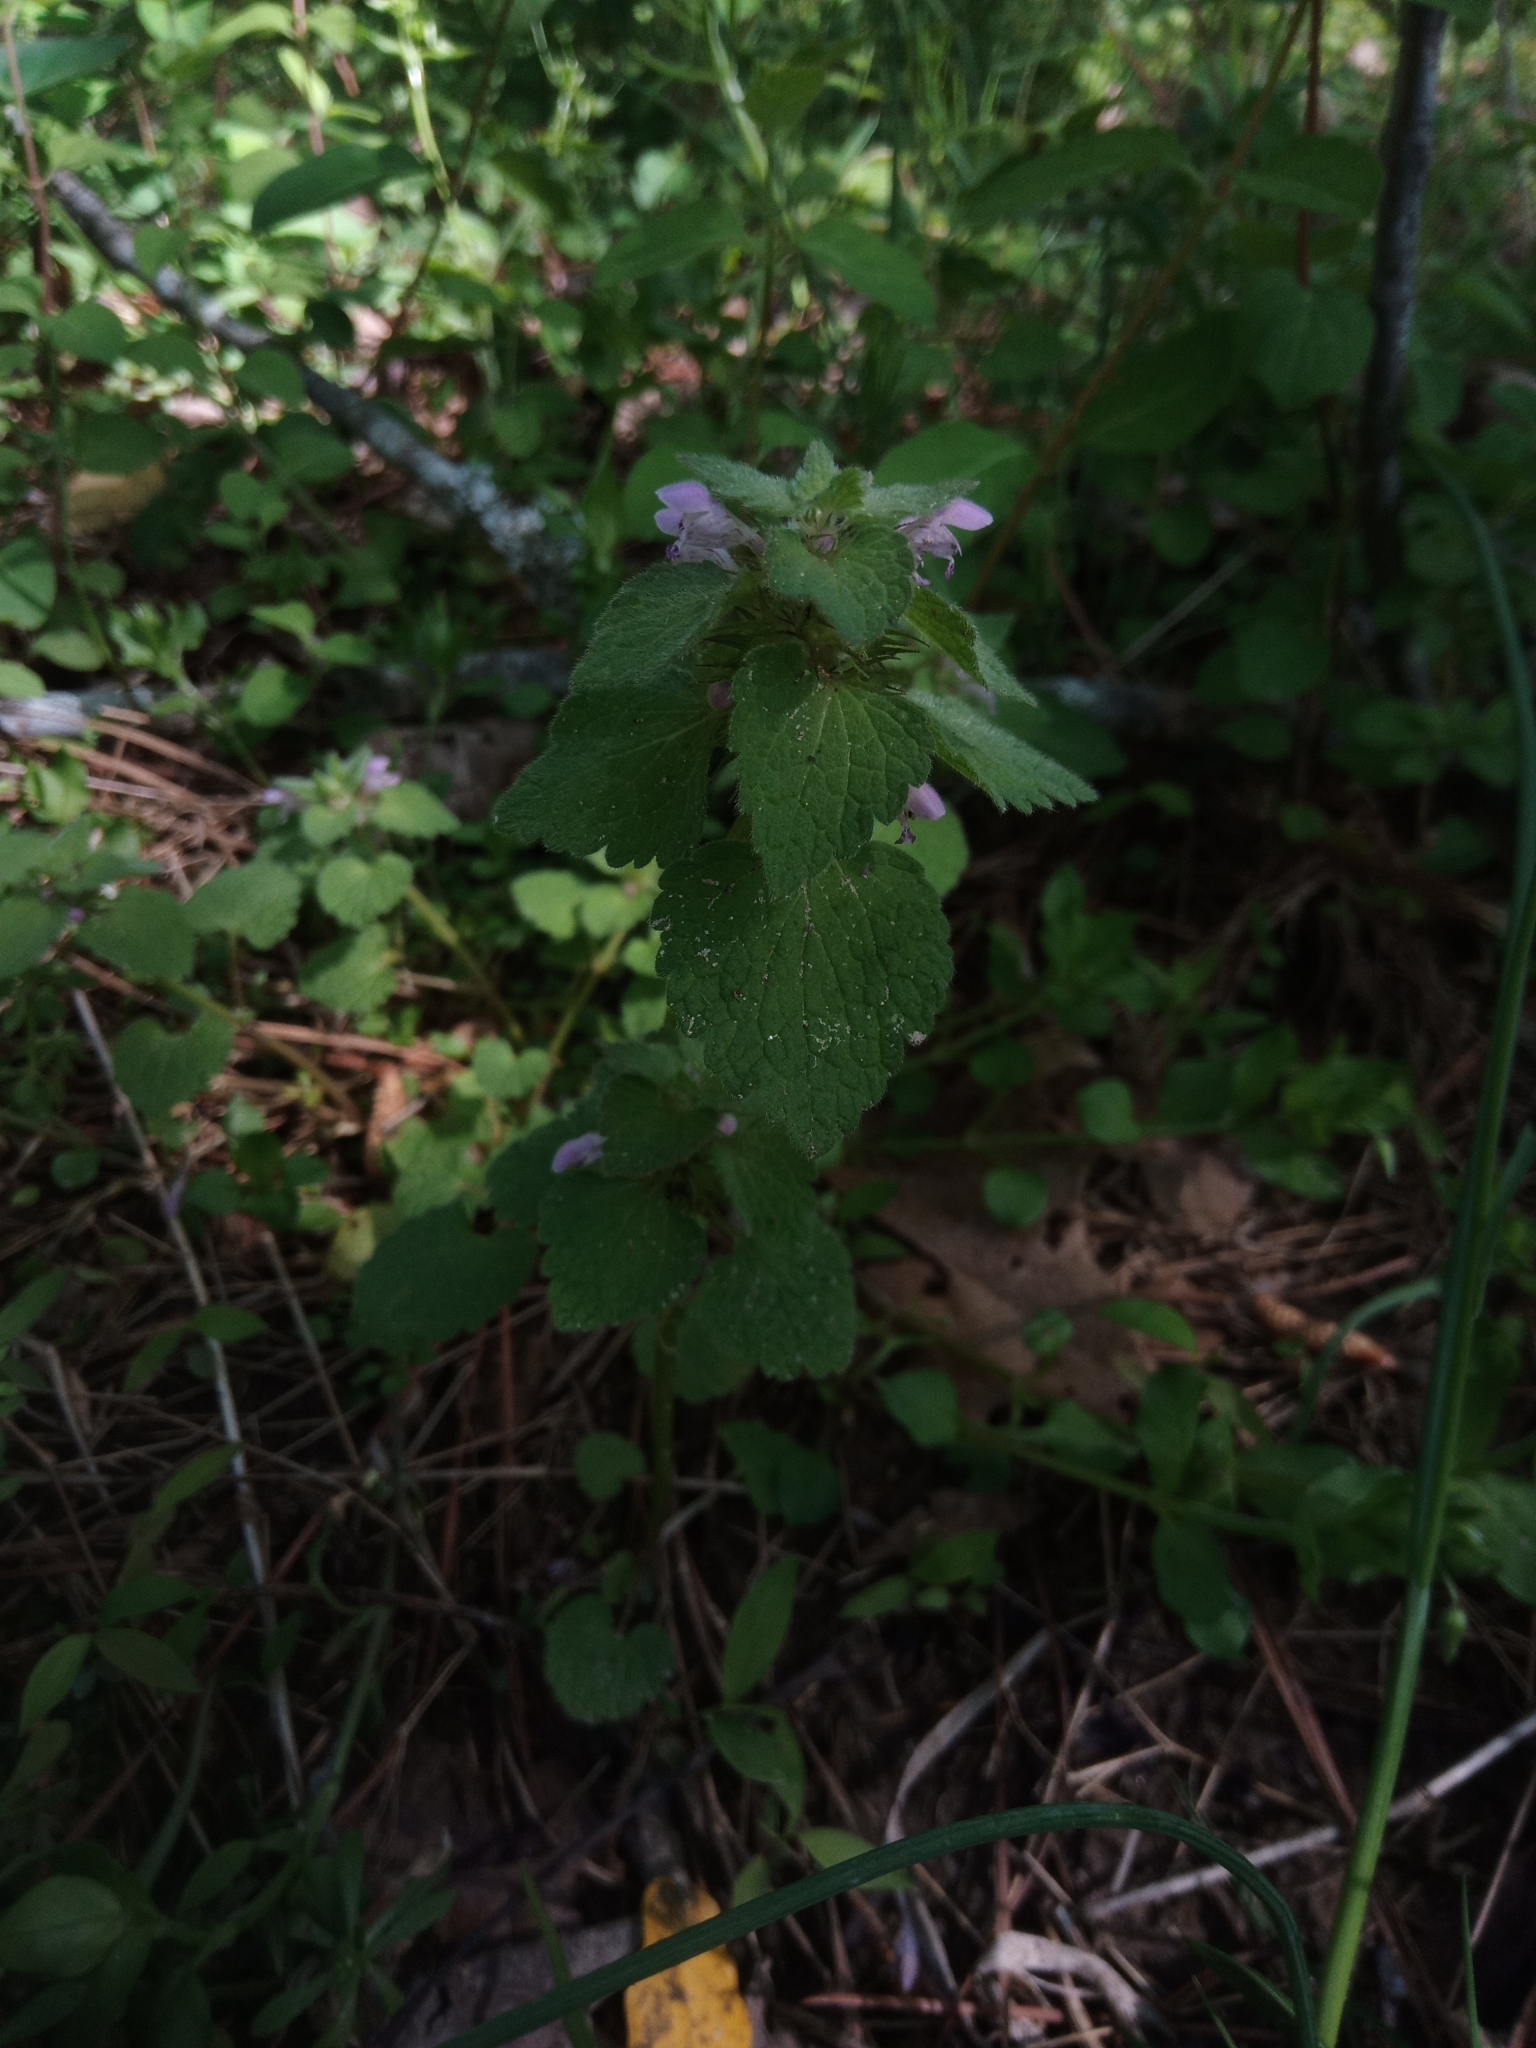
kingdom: Plantae
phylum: Tracheophyta
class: Magnoliopsida
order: Lamiales
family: Lamiaceae
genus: Lamium
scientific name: Lamium purpureum
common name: Red dead-nettle
